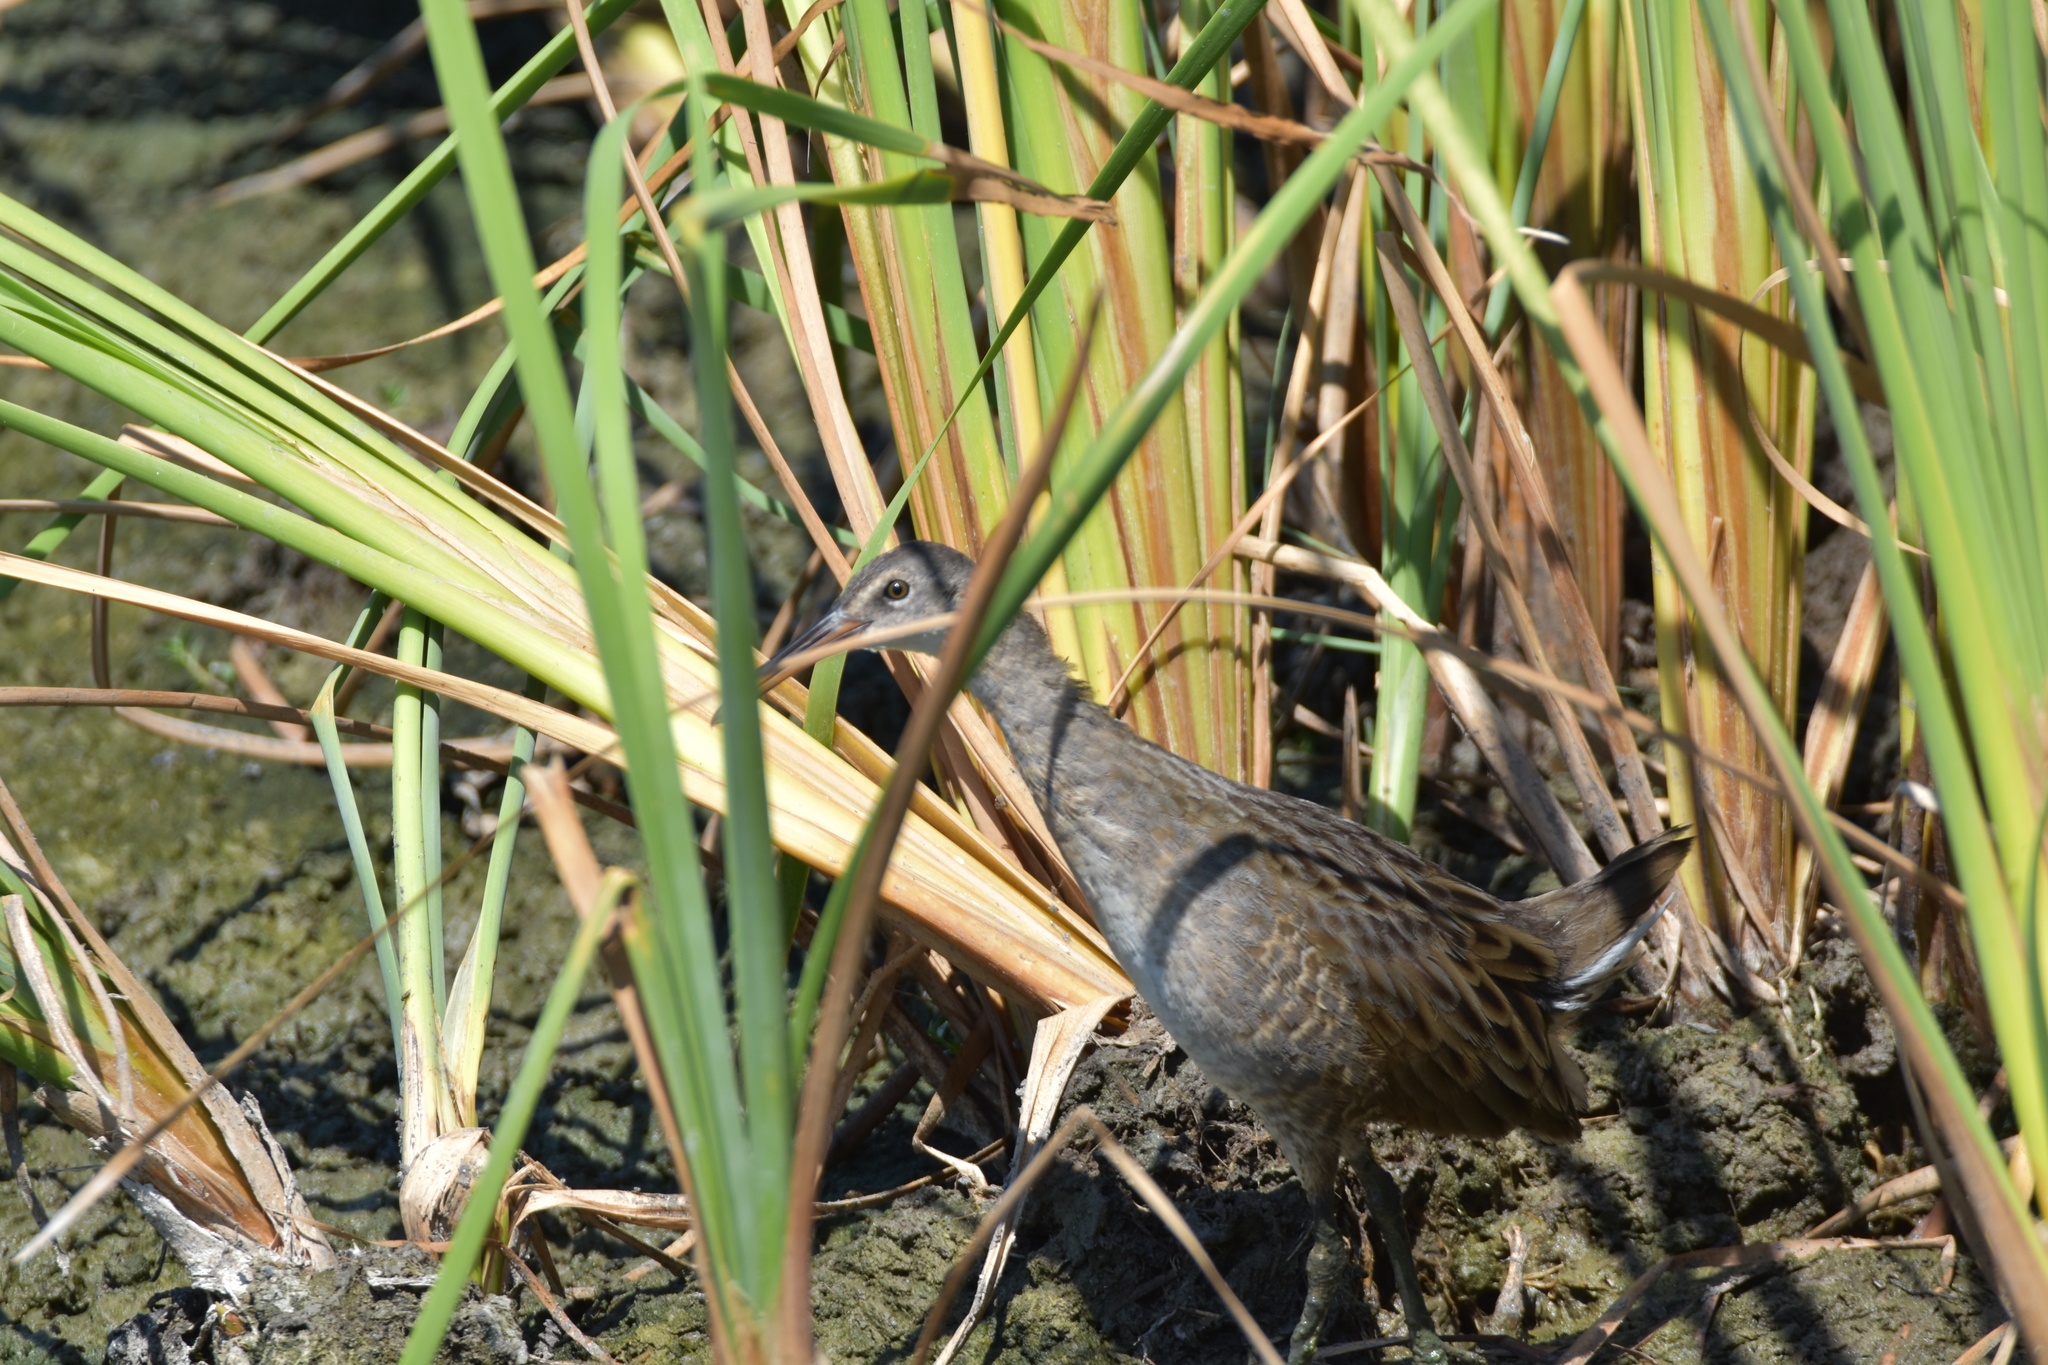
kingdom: Animalia
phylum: Chordata
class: Aves
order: Gruiformes
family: Rallidae
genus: Rallus
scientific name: Rallus crepitans
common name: Clapper rail
